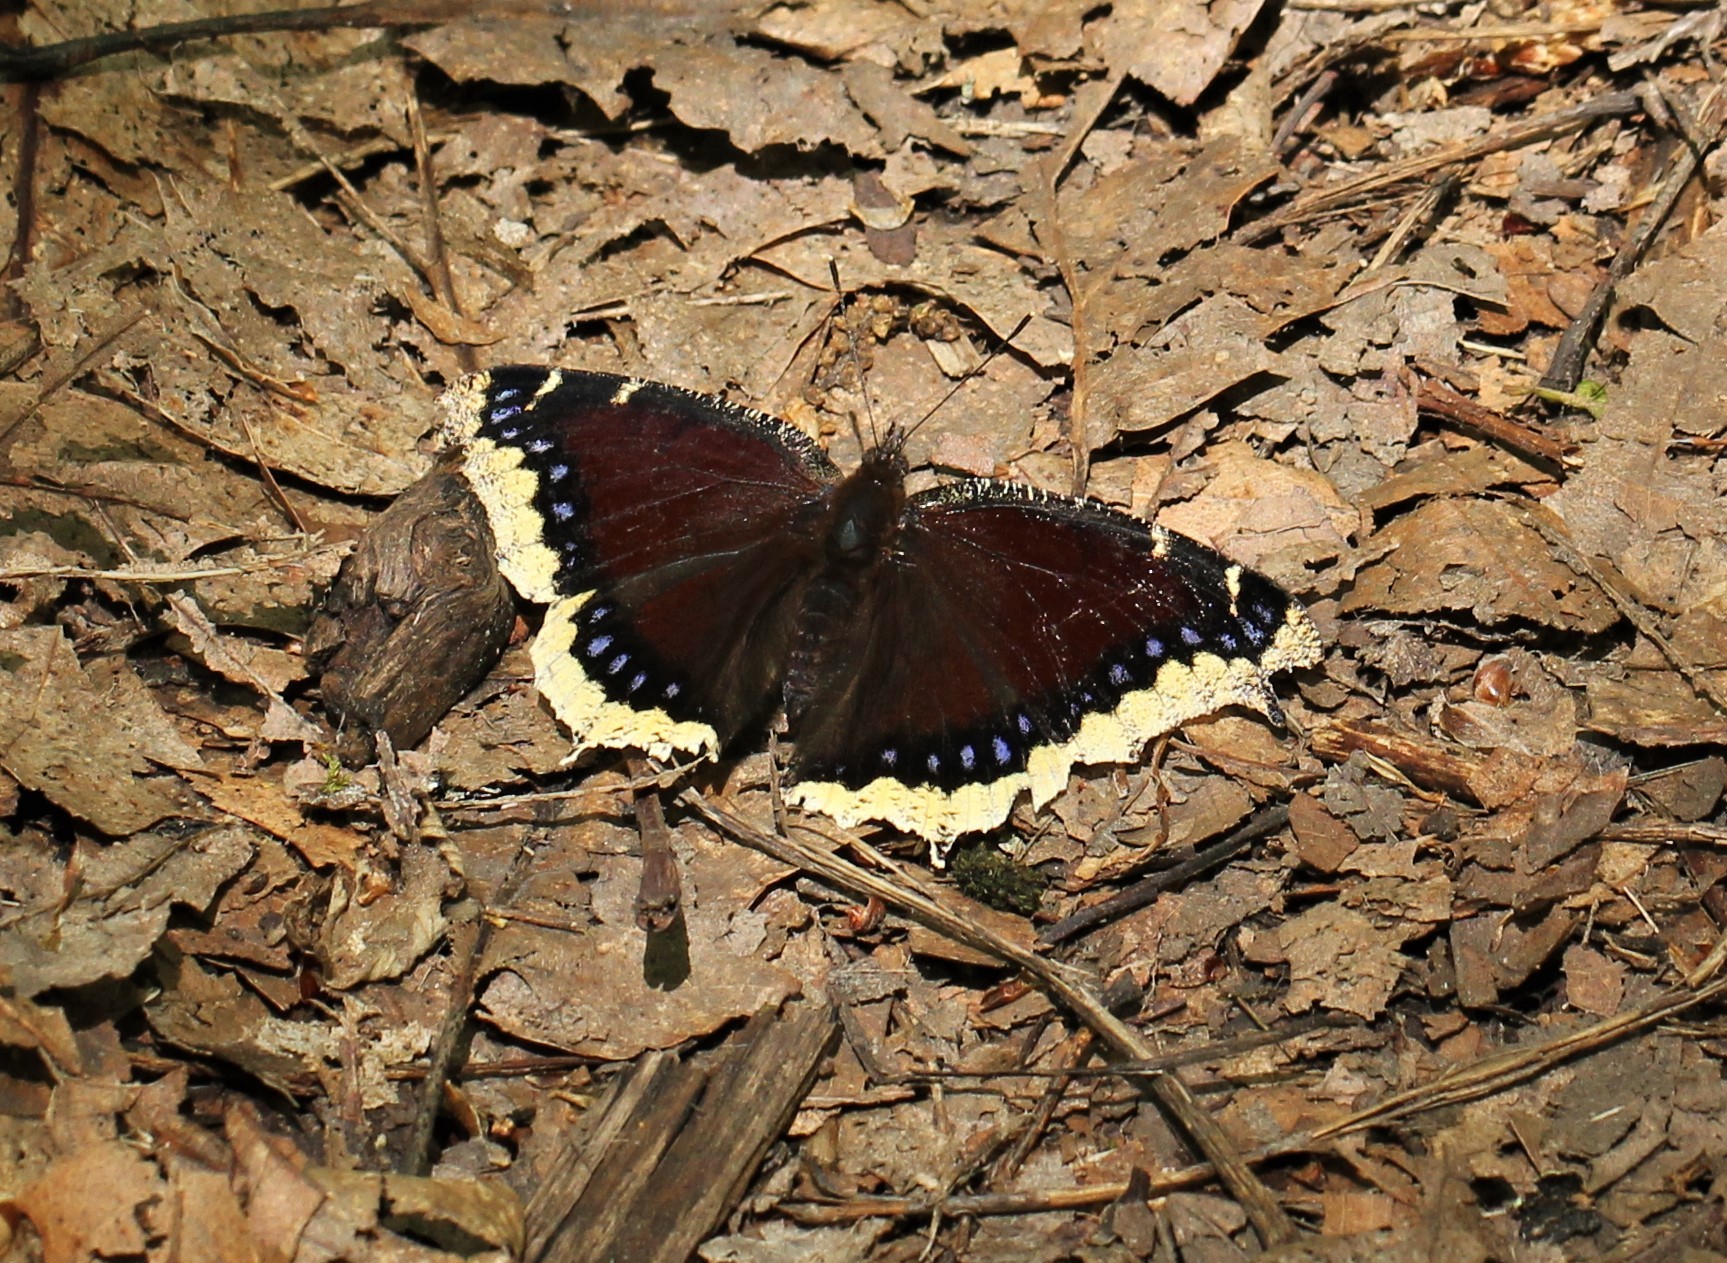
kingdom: Animalia
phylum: Arthropoda
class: Insecta
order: Lepidoptera
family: Nymphalidae
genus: Nymphalis
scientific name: Nymphalis antiopa
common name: Camberwell beauty
